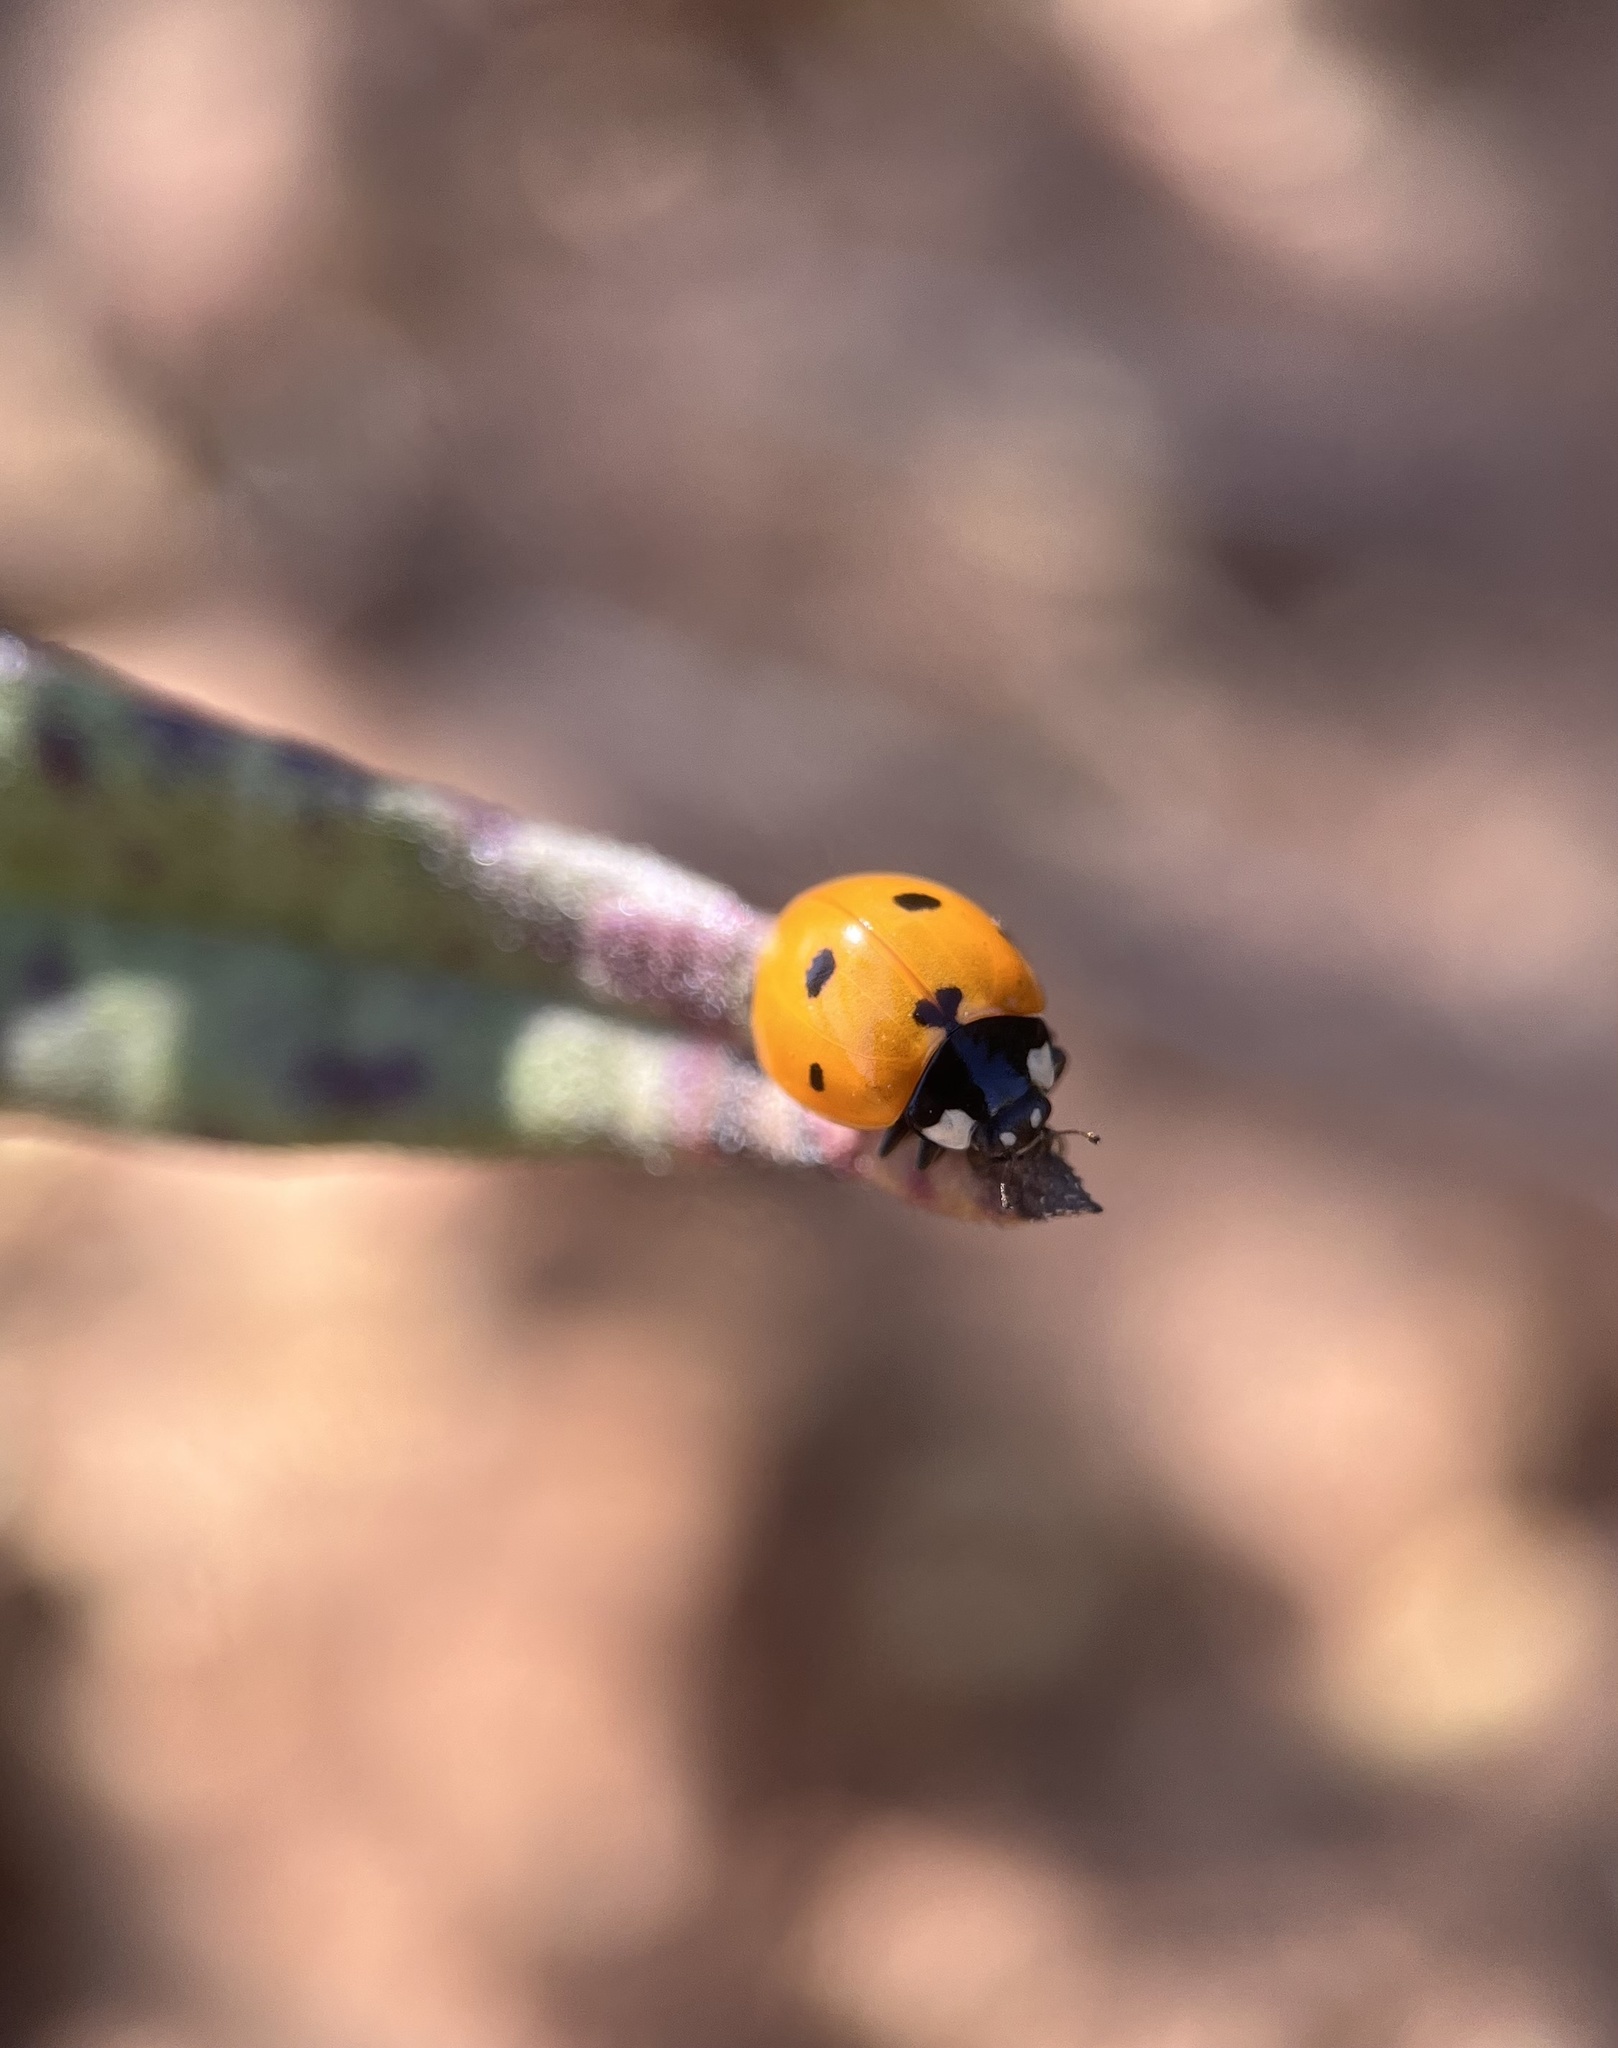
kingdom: Animalia
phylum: Arthropoda
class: Insecta
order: Coleoptera
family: Coccinellidae
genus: Coccinella
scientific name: Coccinella septempunctata
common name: Sevenspotted lady beetle
